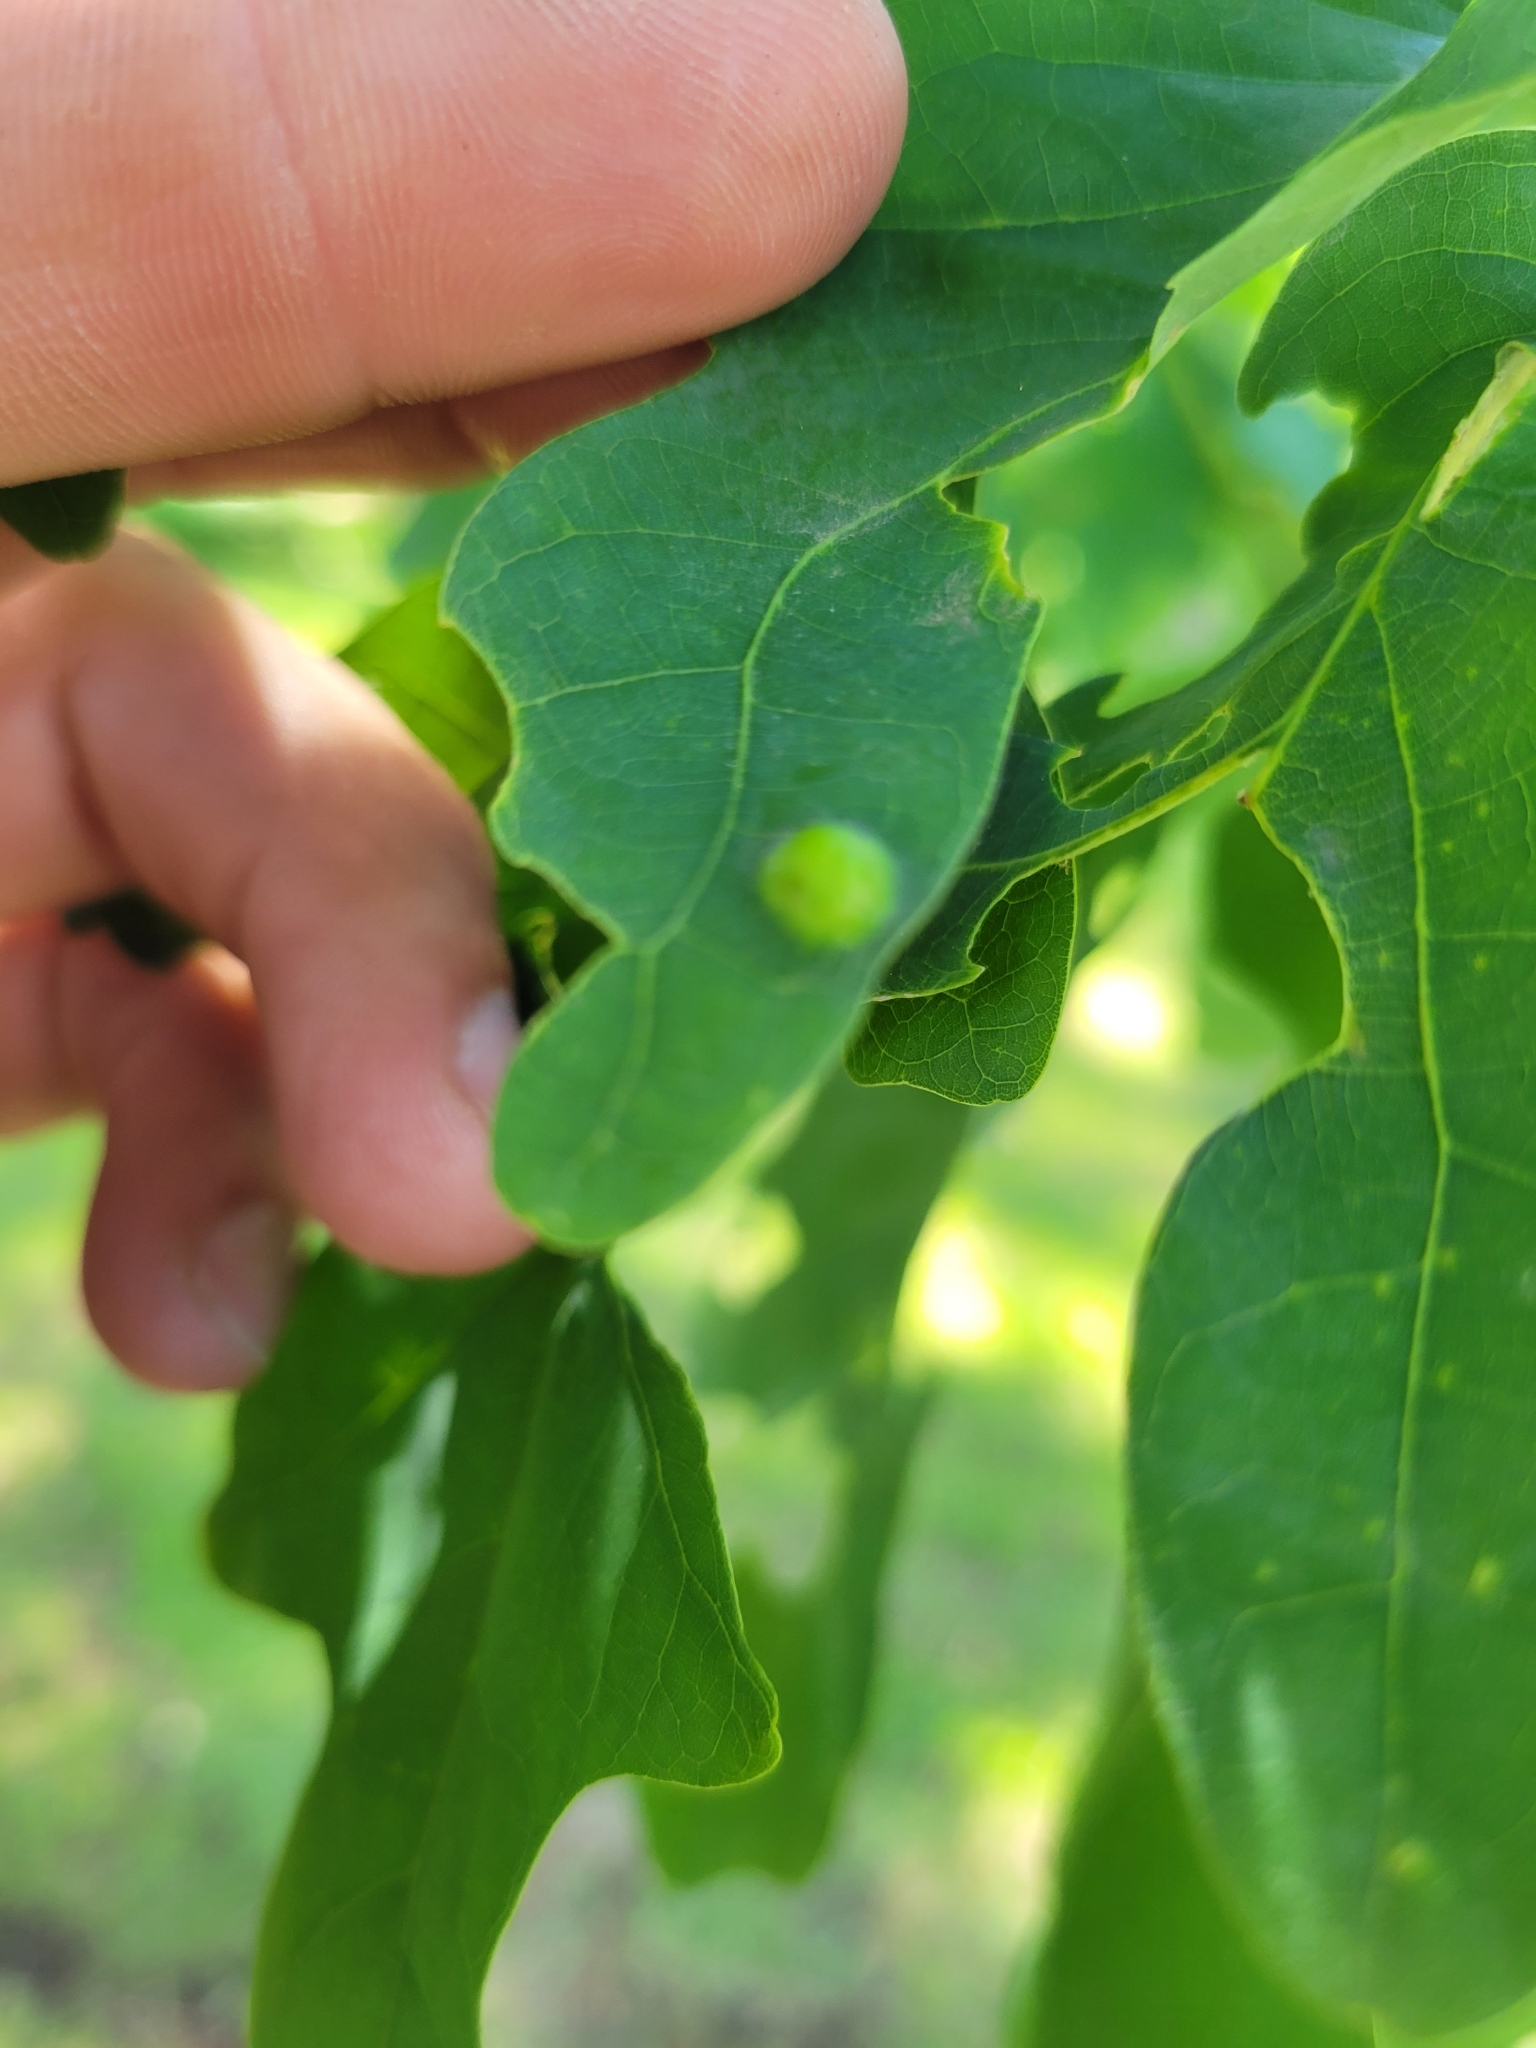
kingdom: Animalia
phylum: Arthropoda
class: Insecta
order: Hymenoptera
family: Cynipidae
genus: Callirhytis
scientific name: Callirhytis
